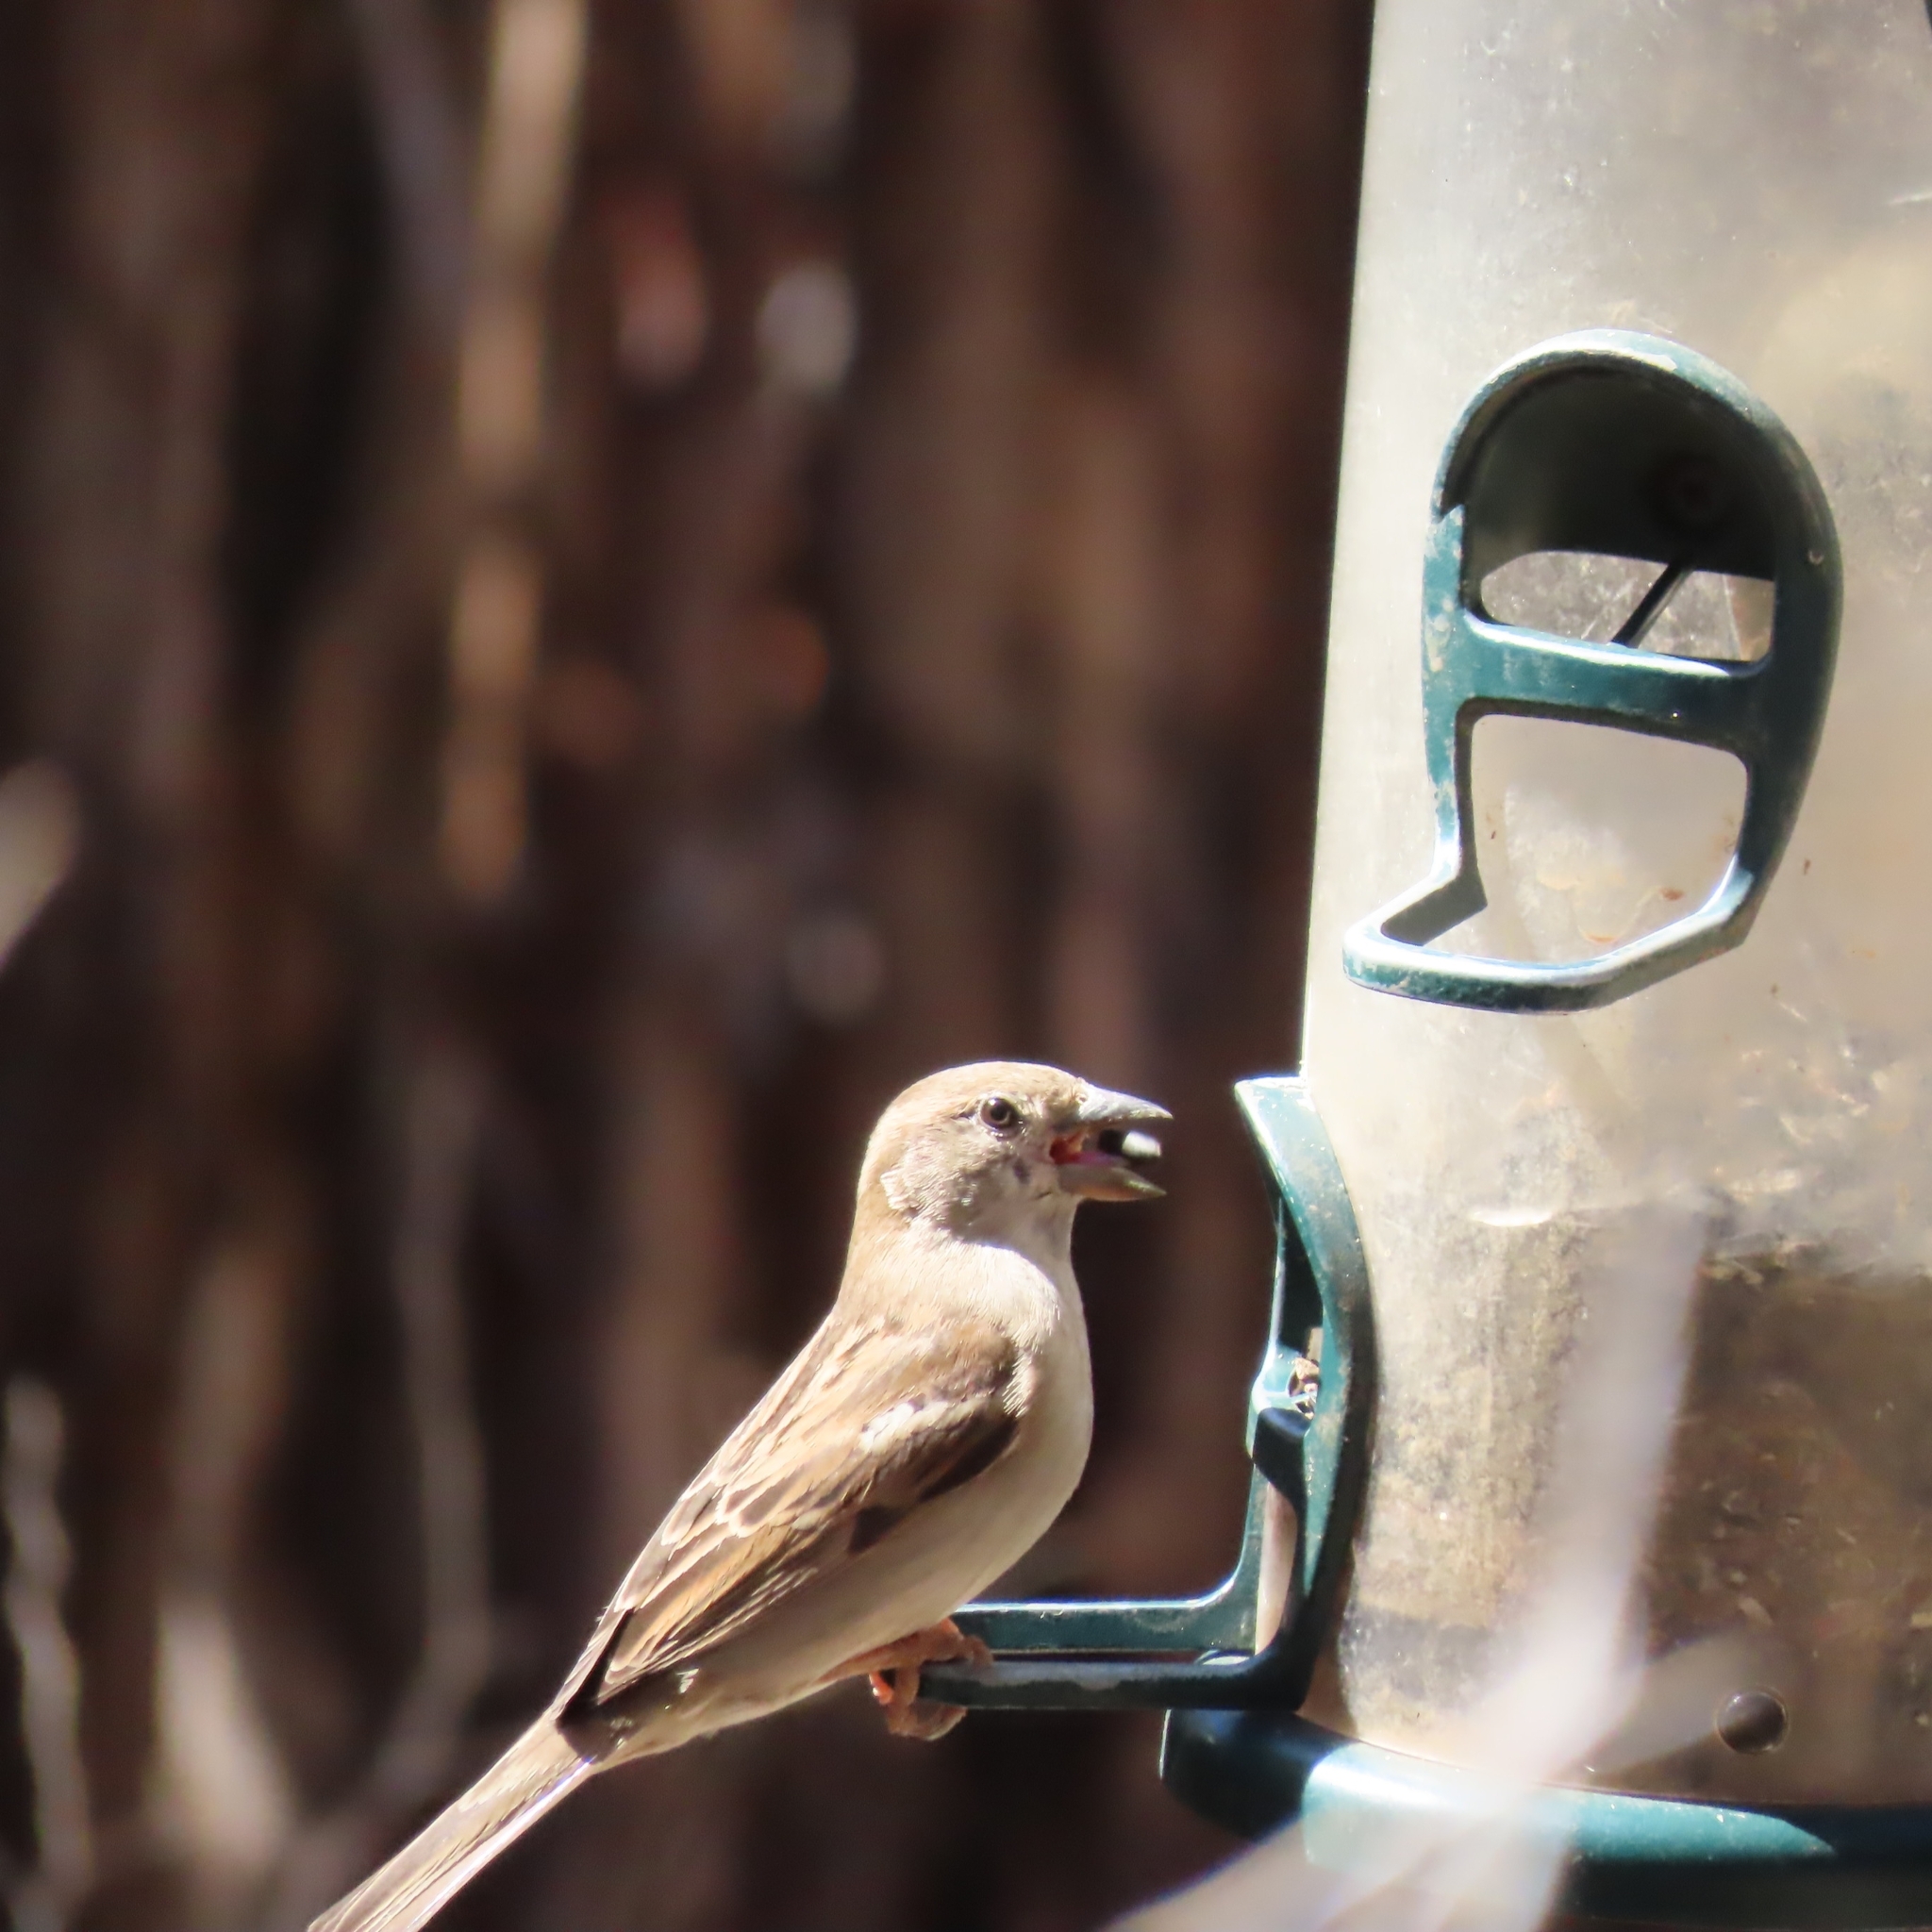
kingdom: Animalia
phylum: Chordata
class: Aves
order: Passeriformes
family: Passeridae
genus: Passer
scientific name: Passer domesticus
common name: House sparrow
